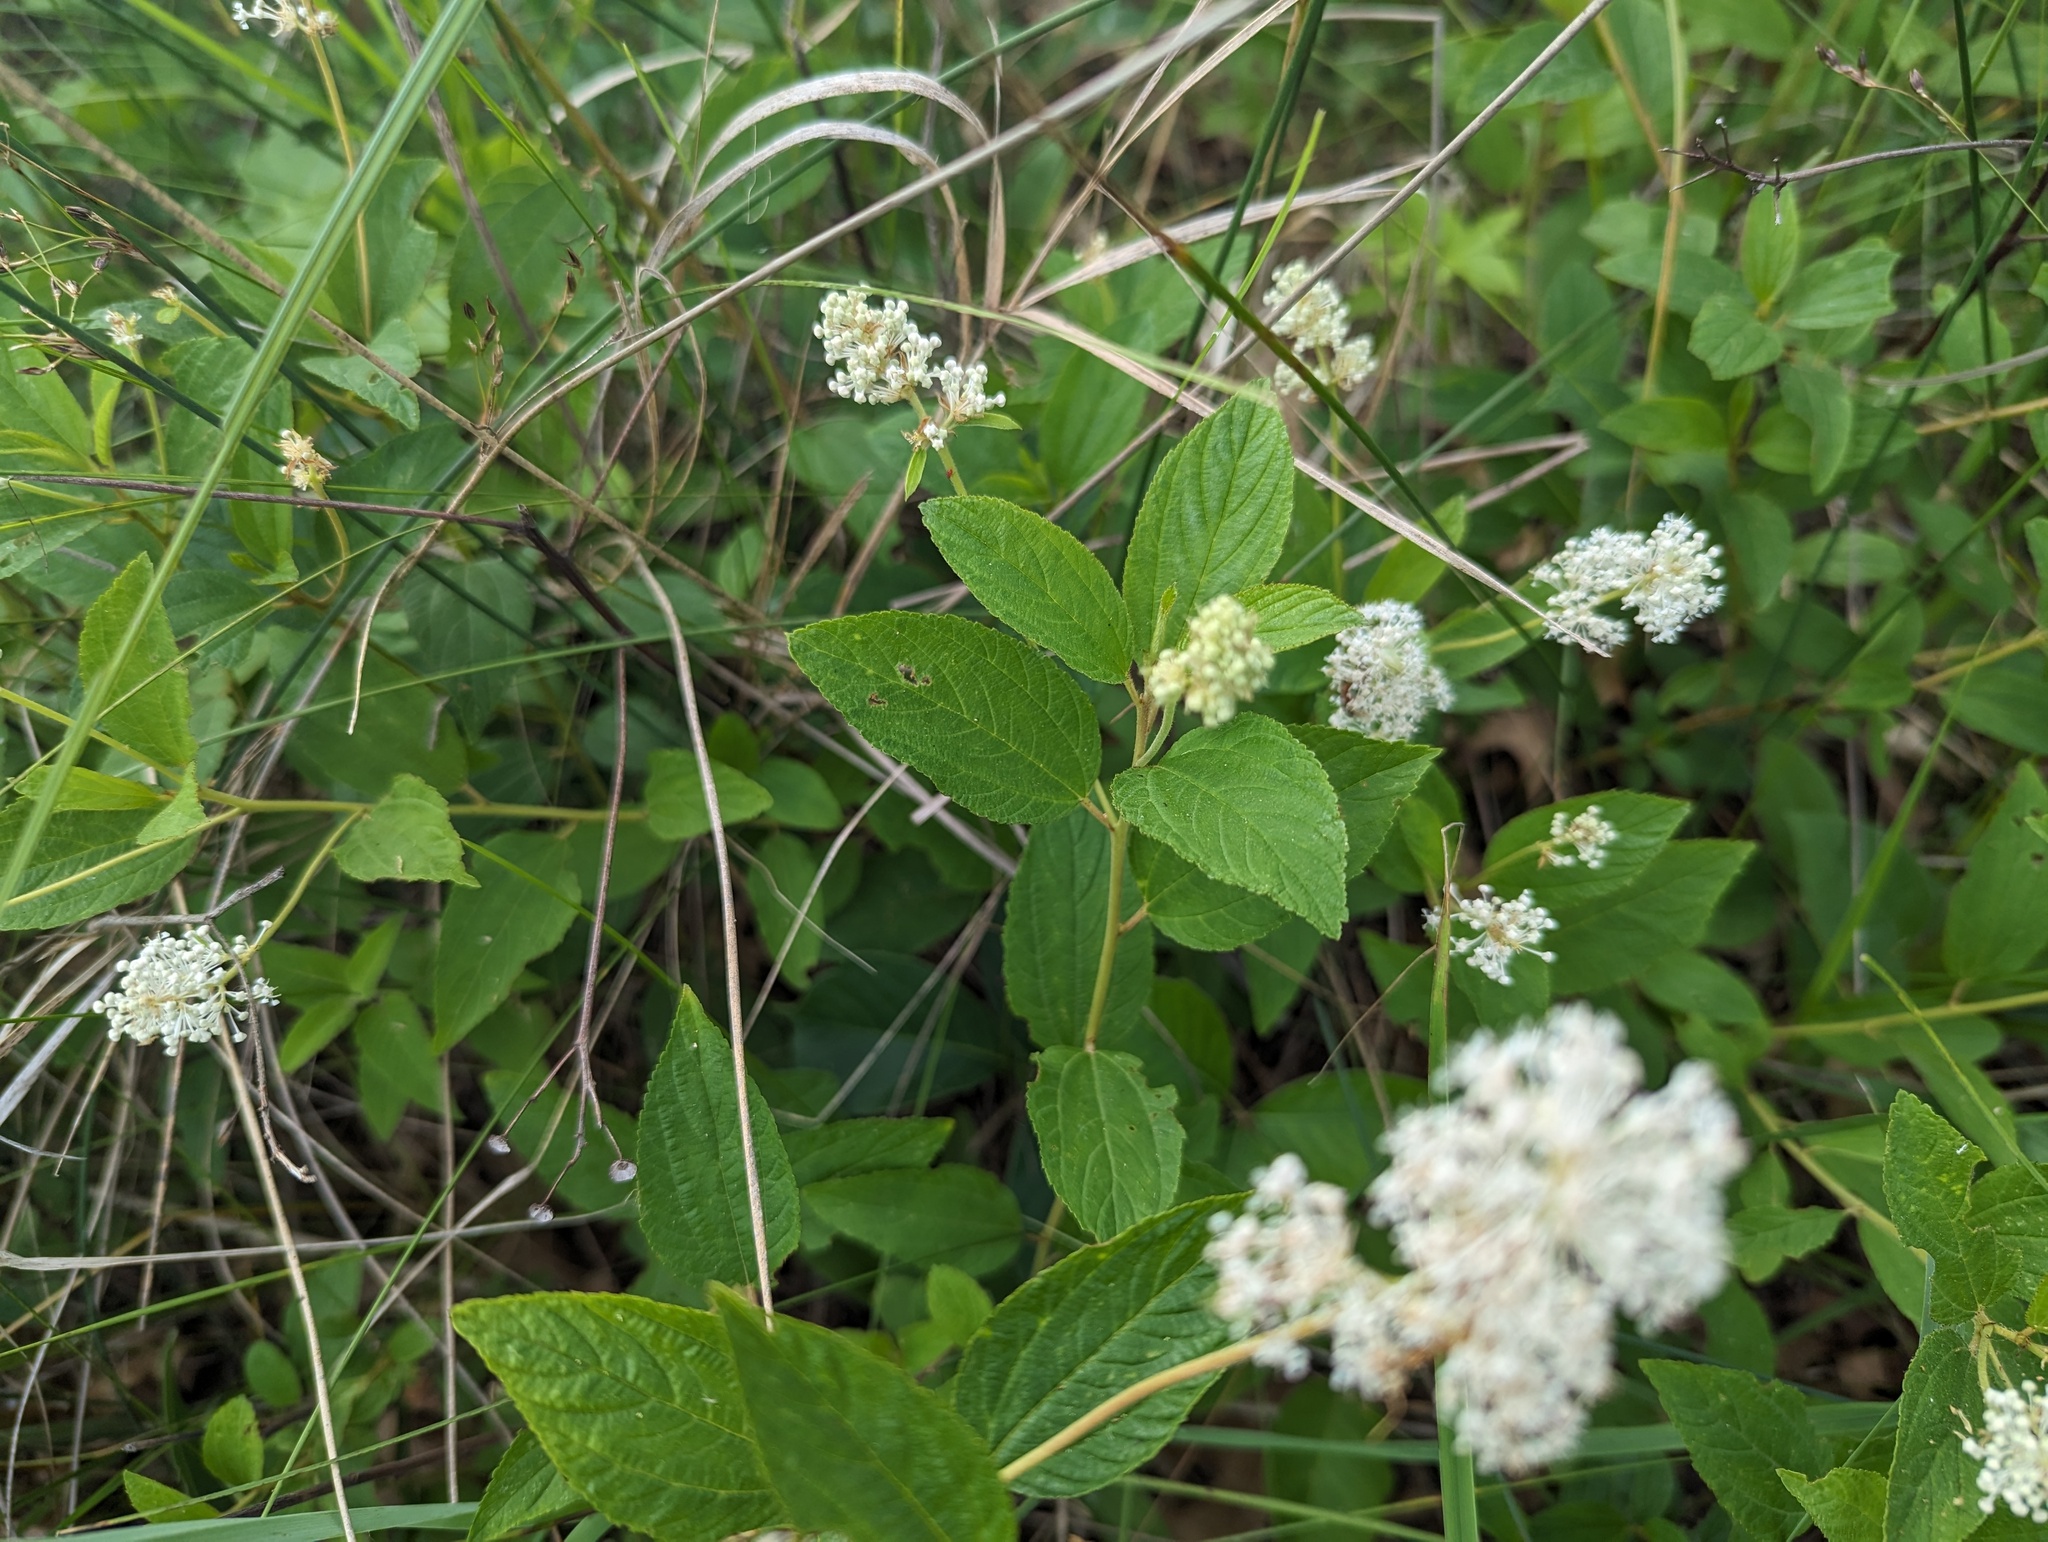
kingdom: Plantae
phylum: Tracheophyta
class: Magnoliopsida
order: Rosales
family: Rhamnaceae
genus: Ceanothus
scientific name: Ceanothus americanus
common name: Redroot
